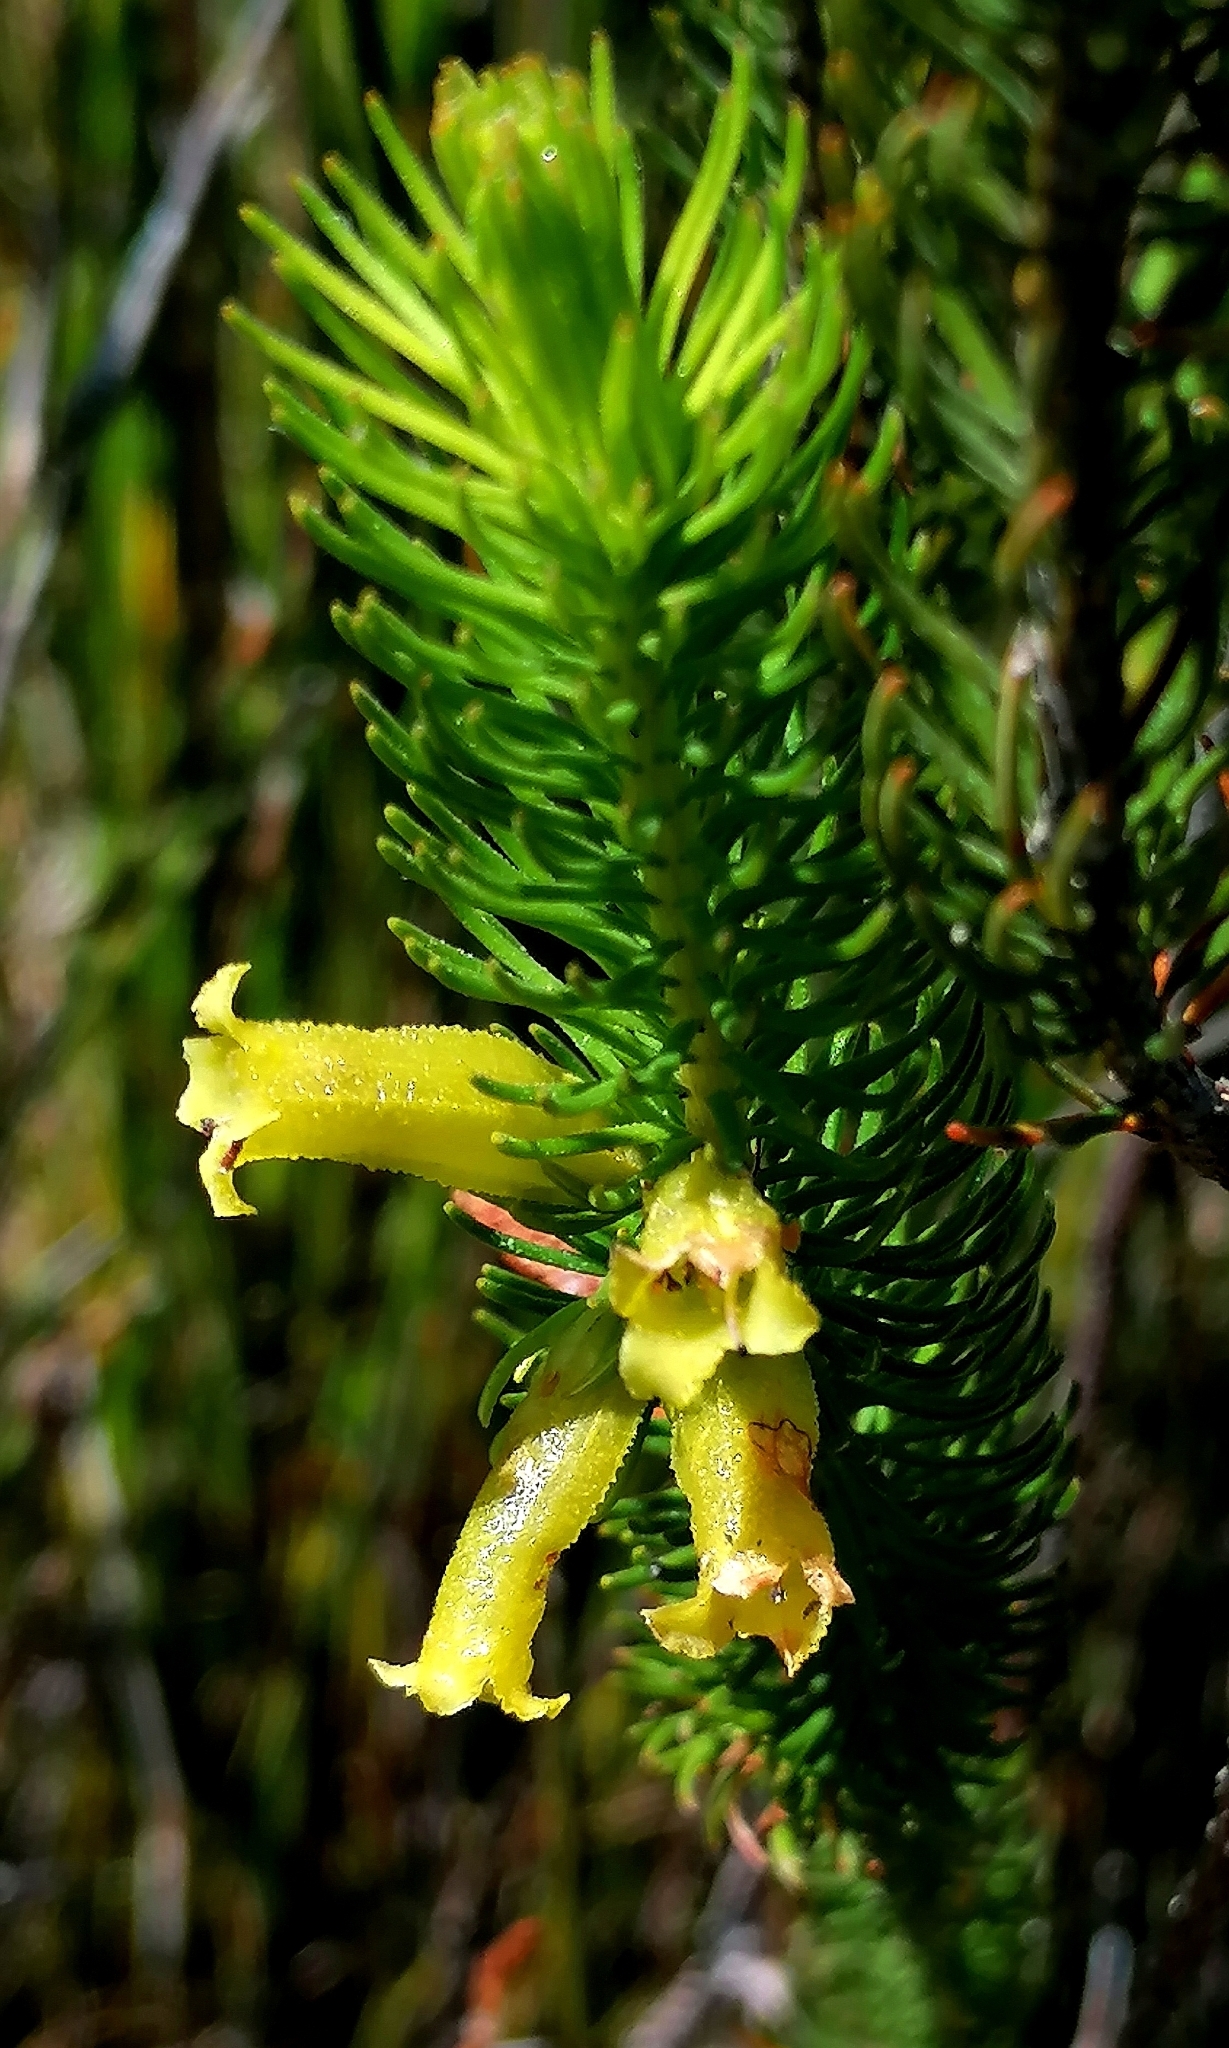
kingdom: Plantae
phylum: Tracheophyta
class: Magnoliopsida
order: Ericales
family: Ericaceae
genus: Erica
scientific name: Erica viscaria
